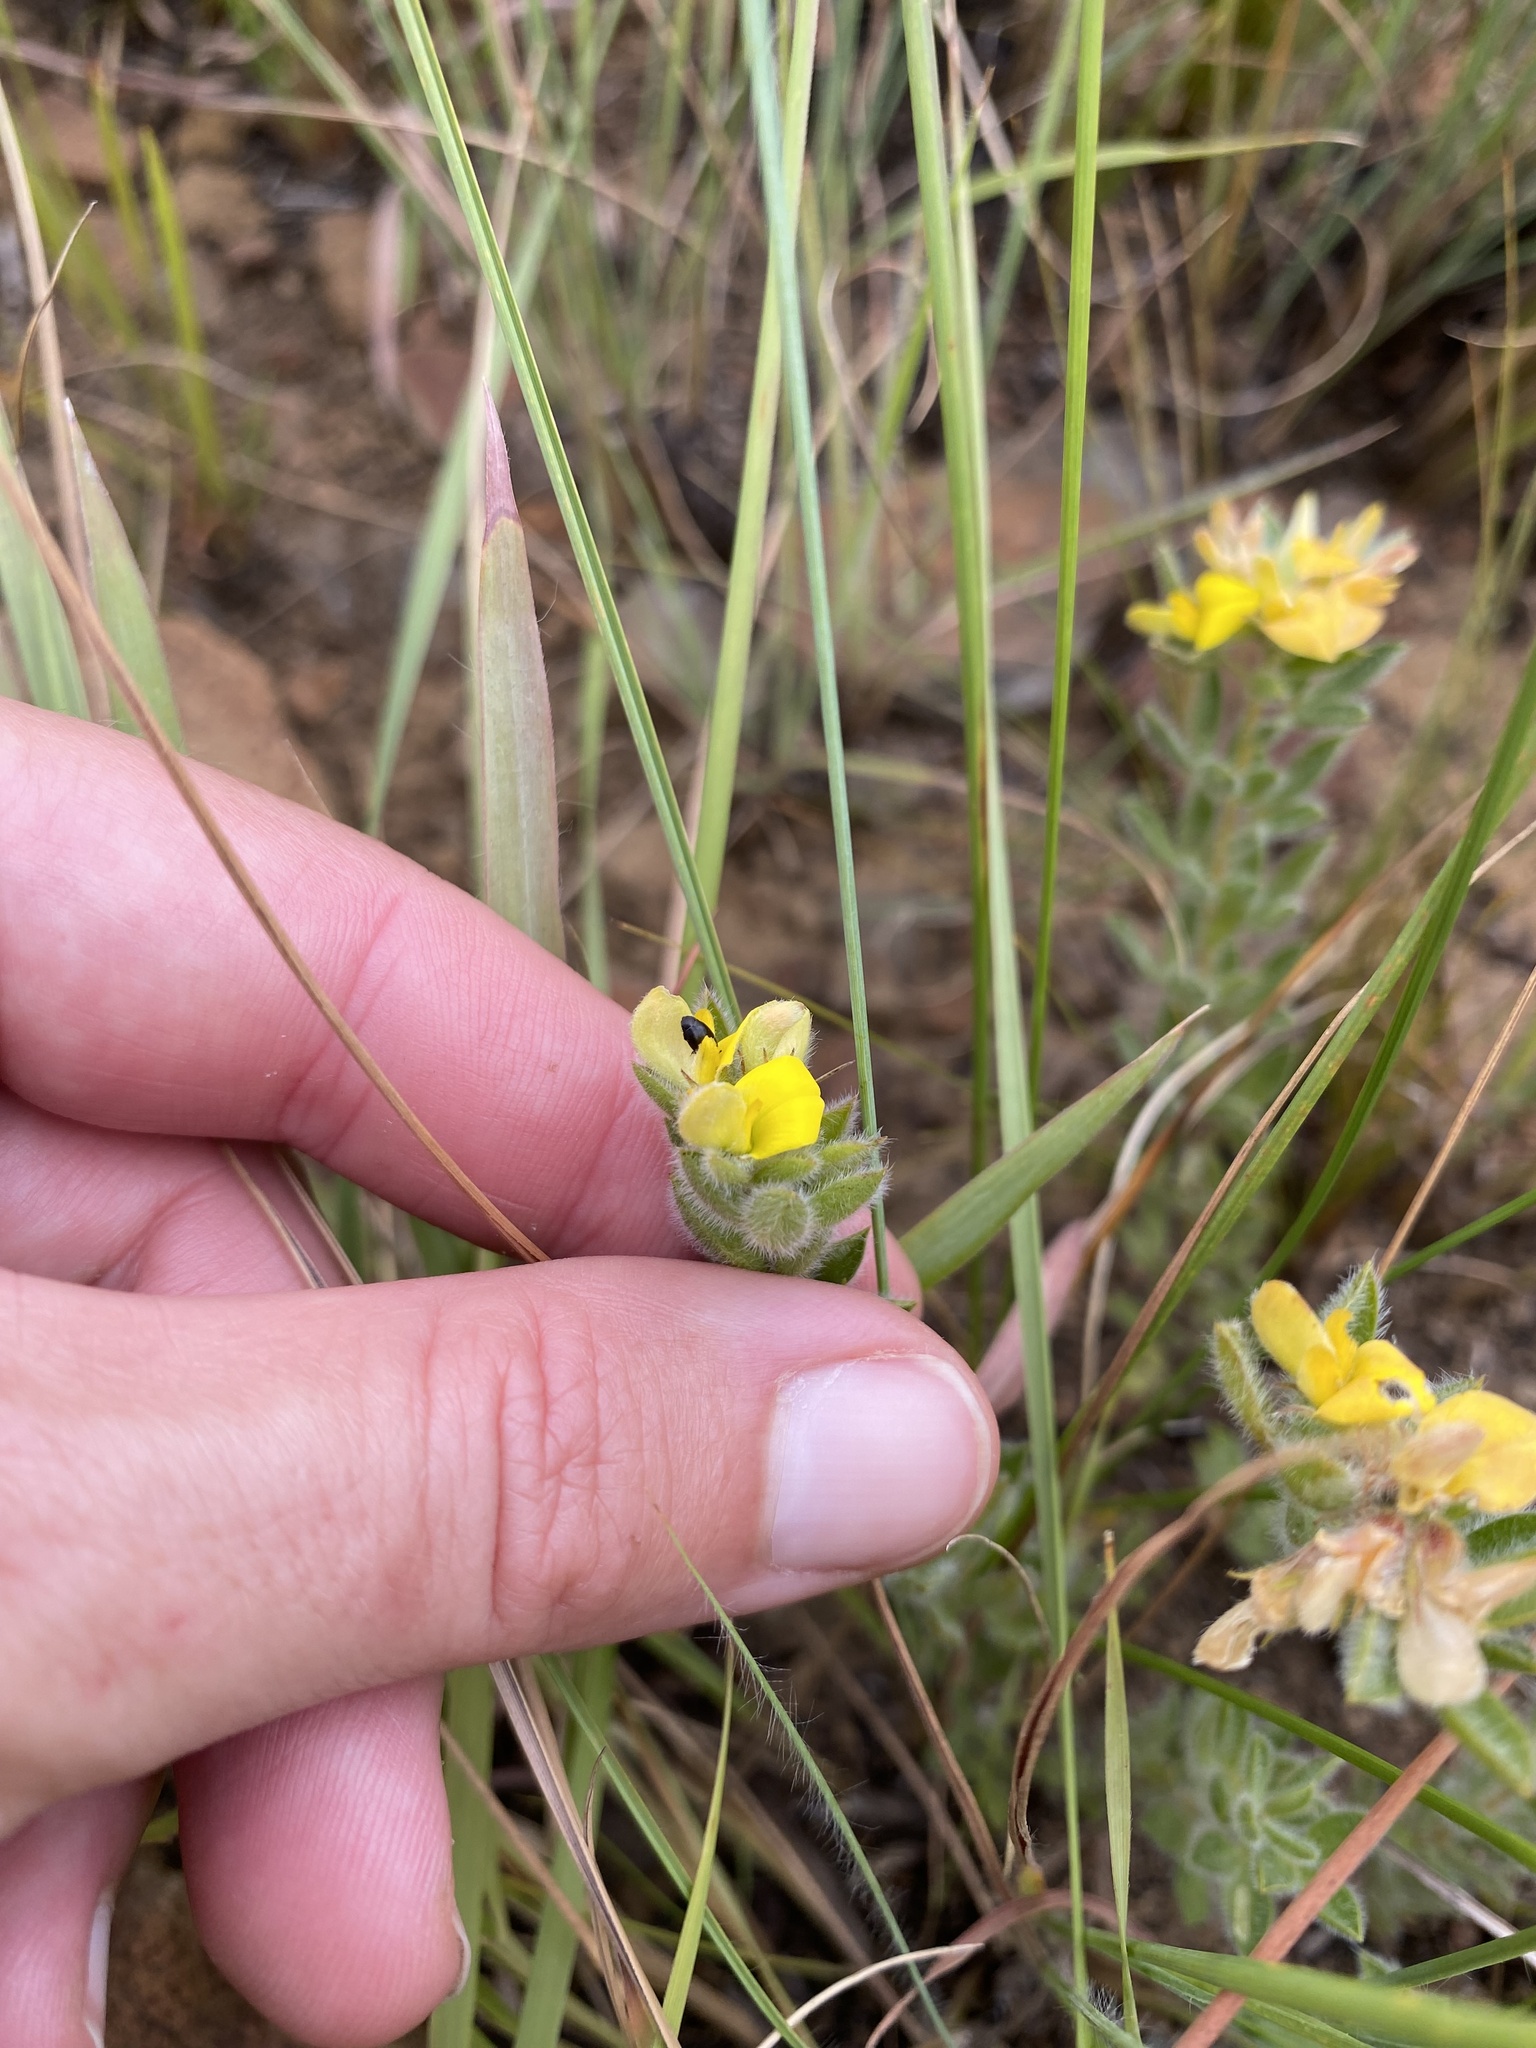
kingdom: Plantae
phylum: Tracheophyta
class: Magnoliopsida
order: Fabales
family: Fabaceae
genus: Leobordea
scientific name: Leobordea corymbosa
